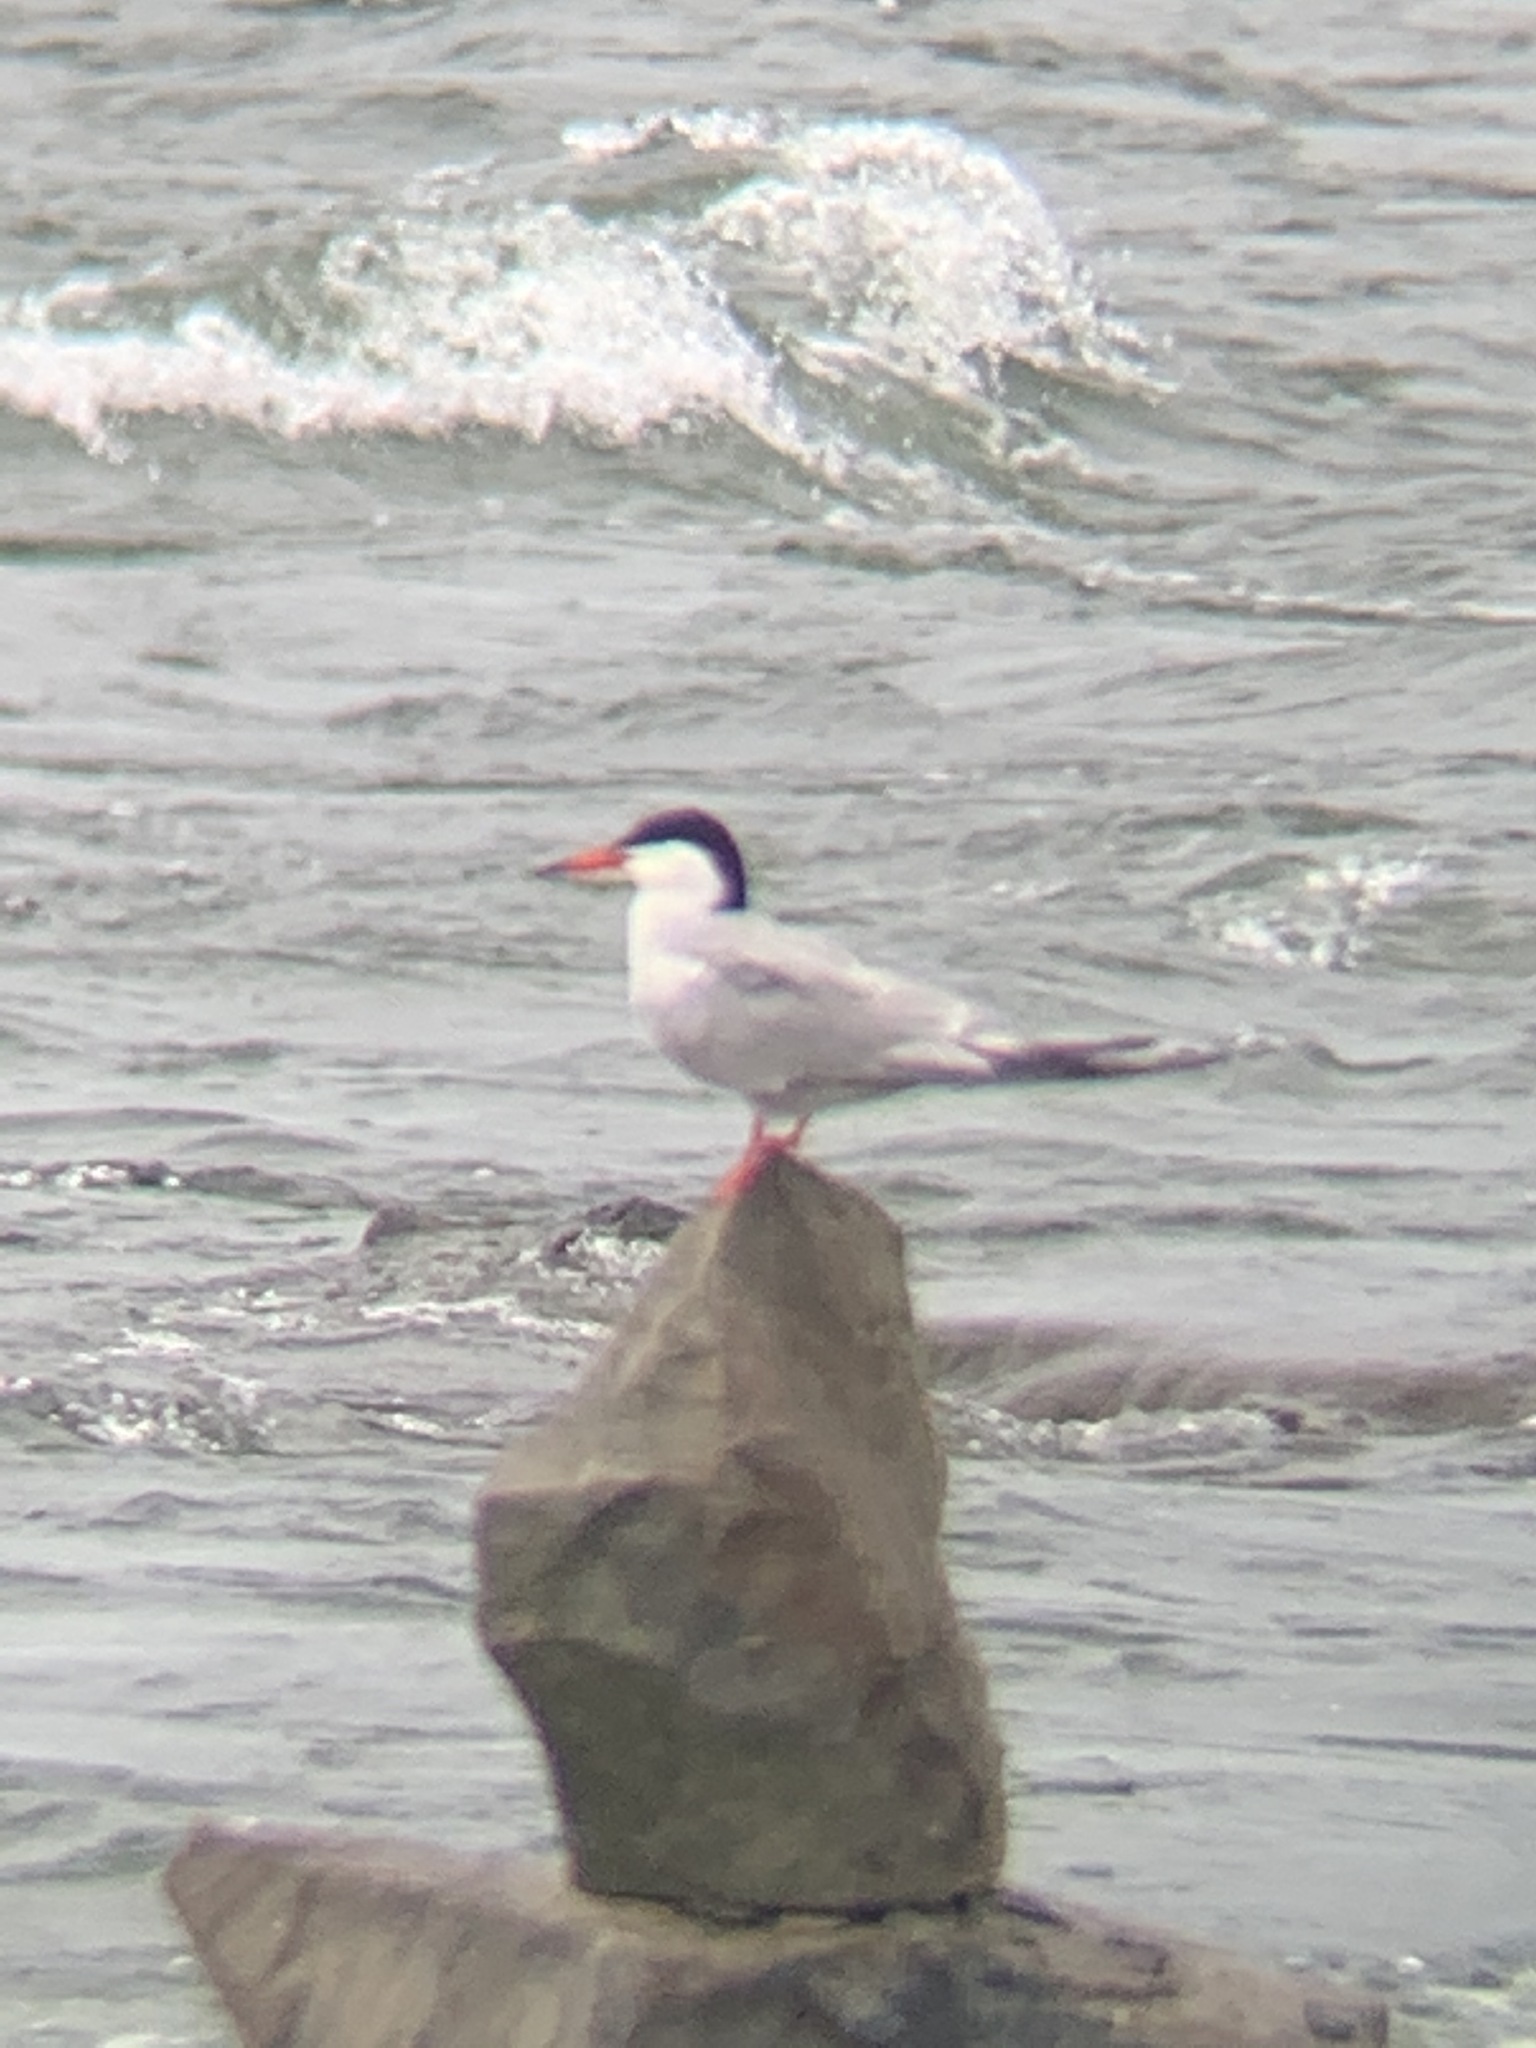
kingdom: Animalia
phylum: Chordata
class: Aves
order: Charadriiformes
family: Laridae
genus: Sterna
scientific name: Sterna hirundo
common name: Common tern
